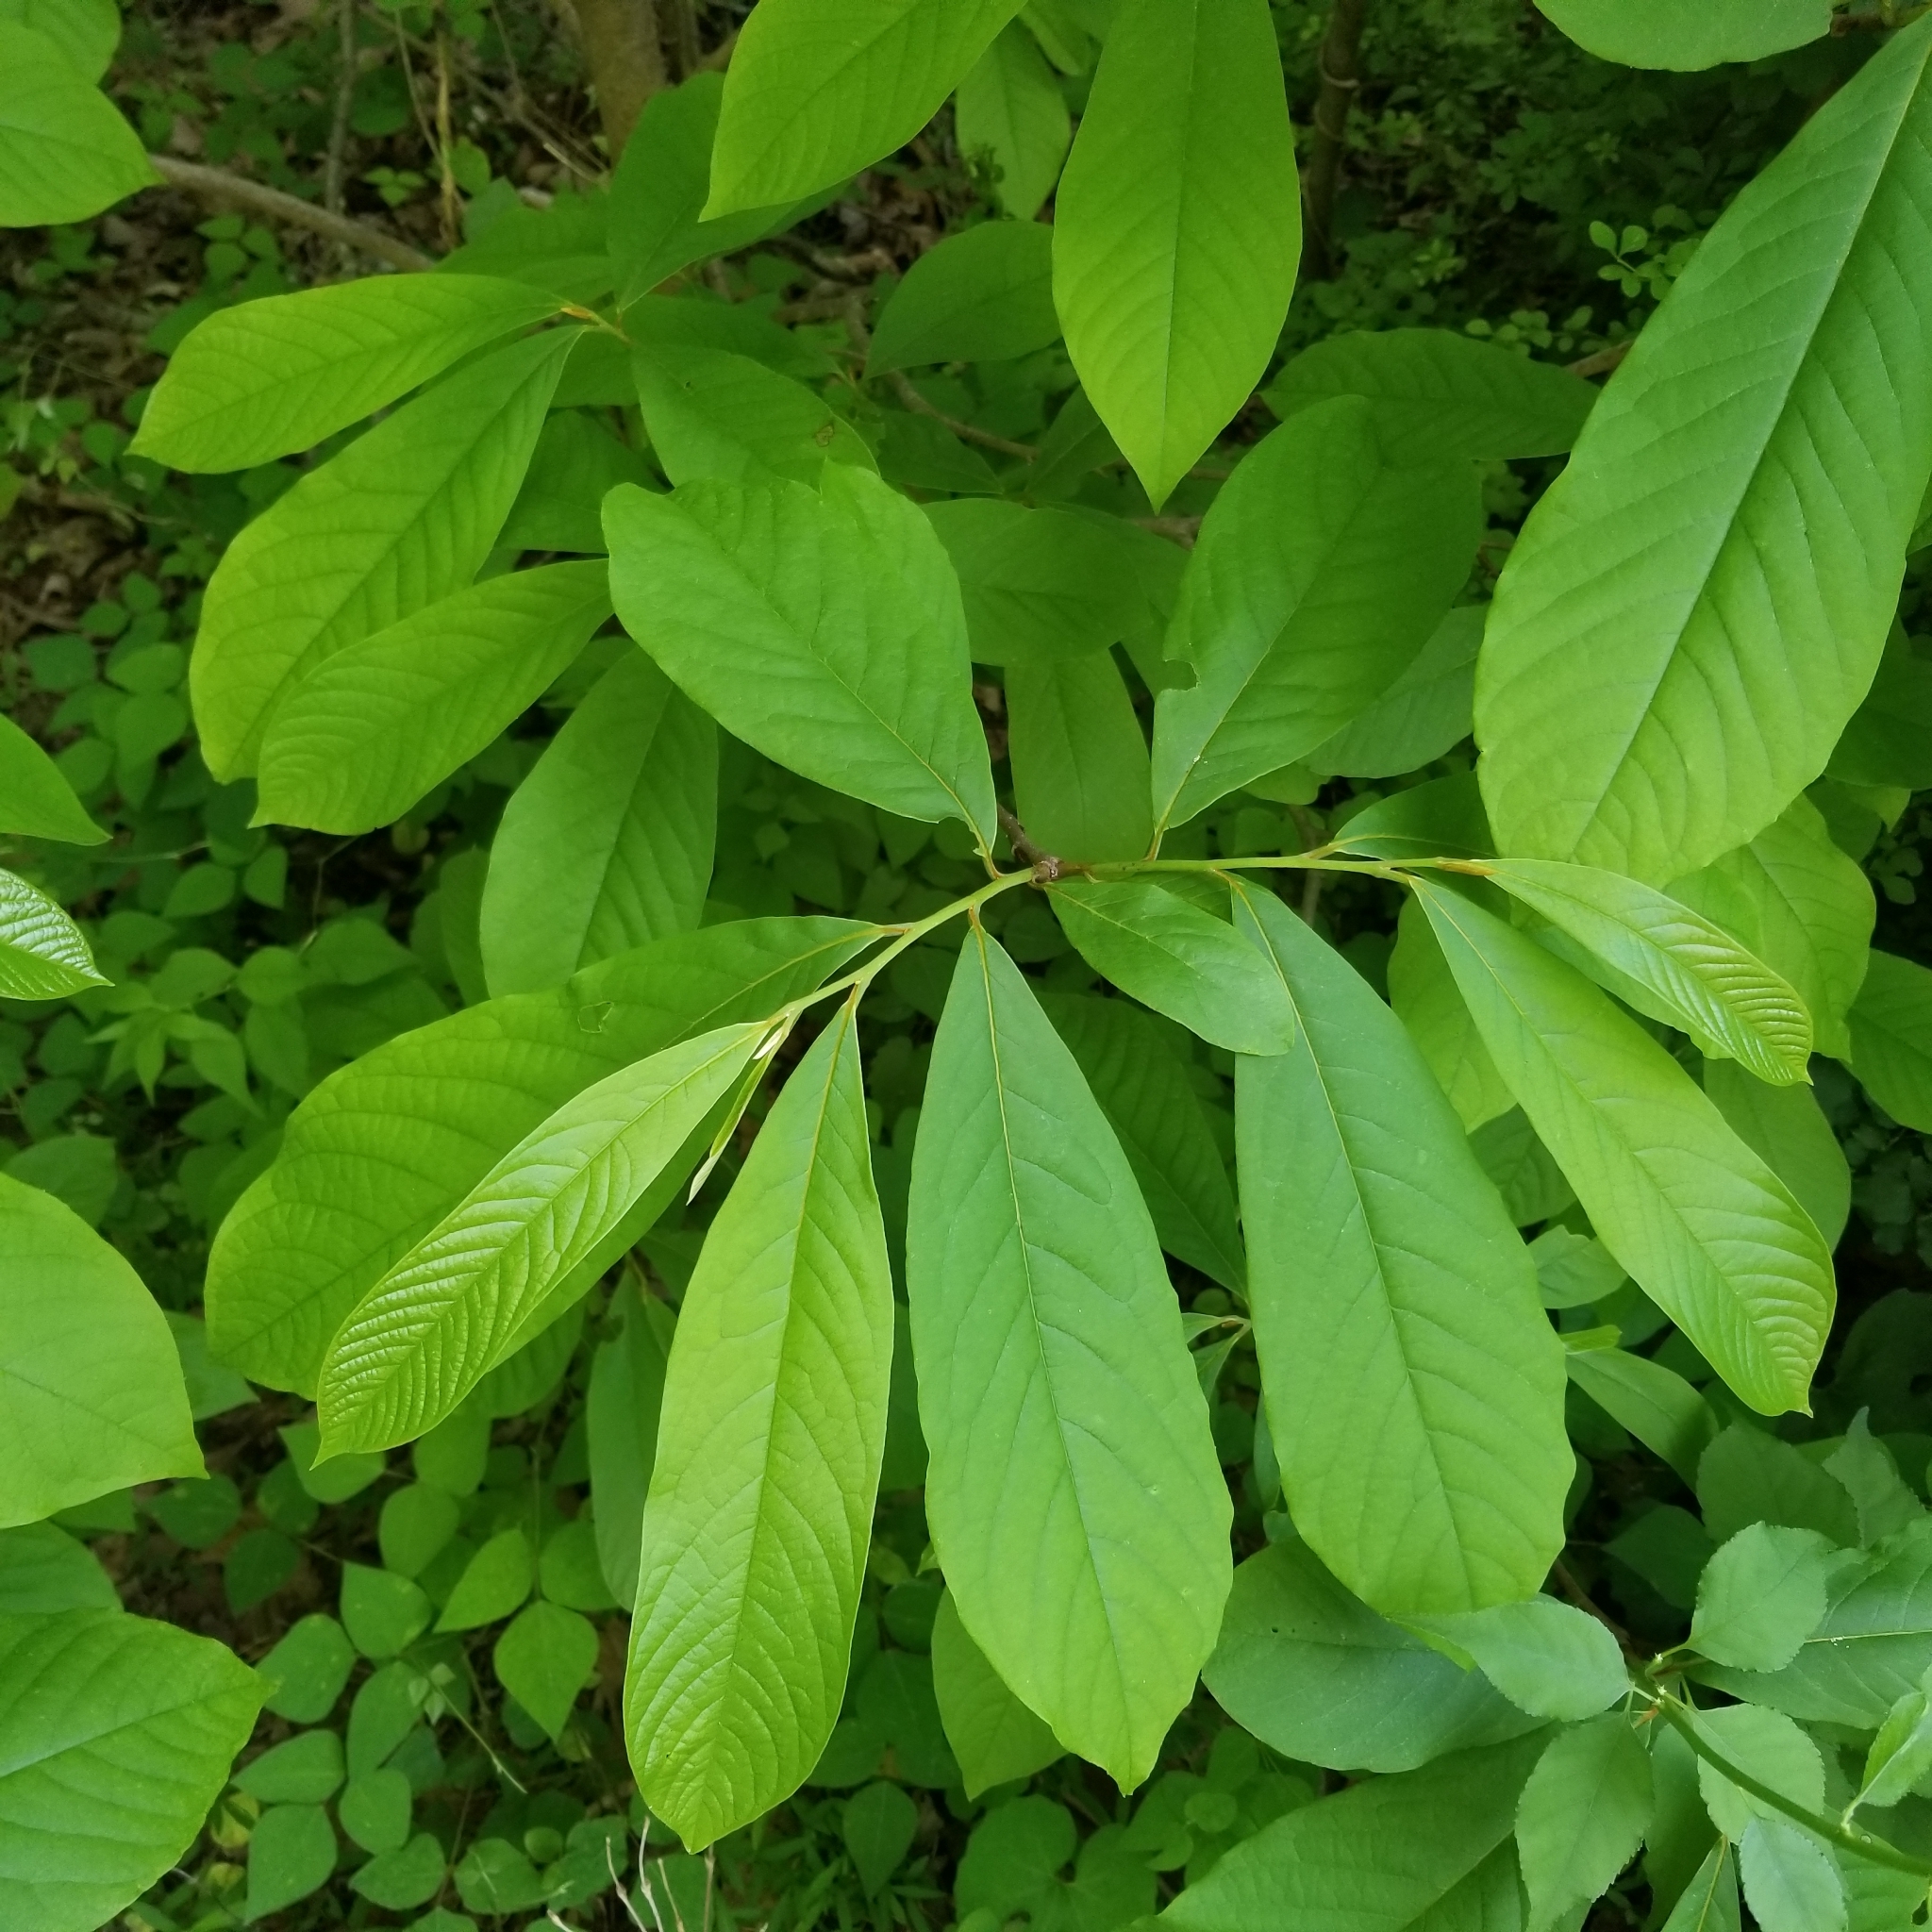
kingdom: Plantae
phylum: Tracheophyta
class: Magnoliopsida
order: Magnoliales
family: Annonaceae
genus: Asimina
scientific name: Asimina triloba
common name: Dog-banana
